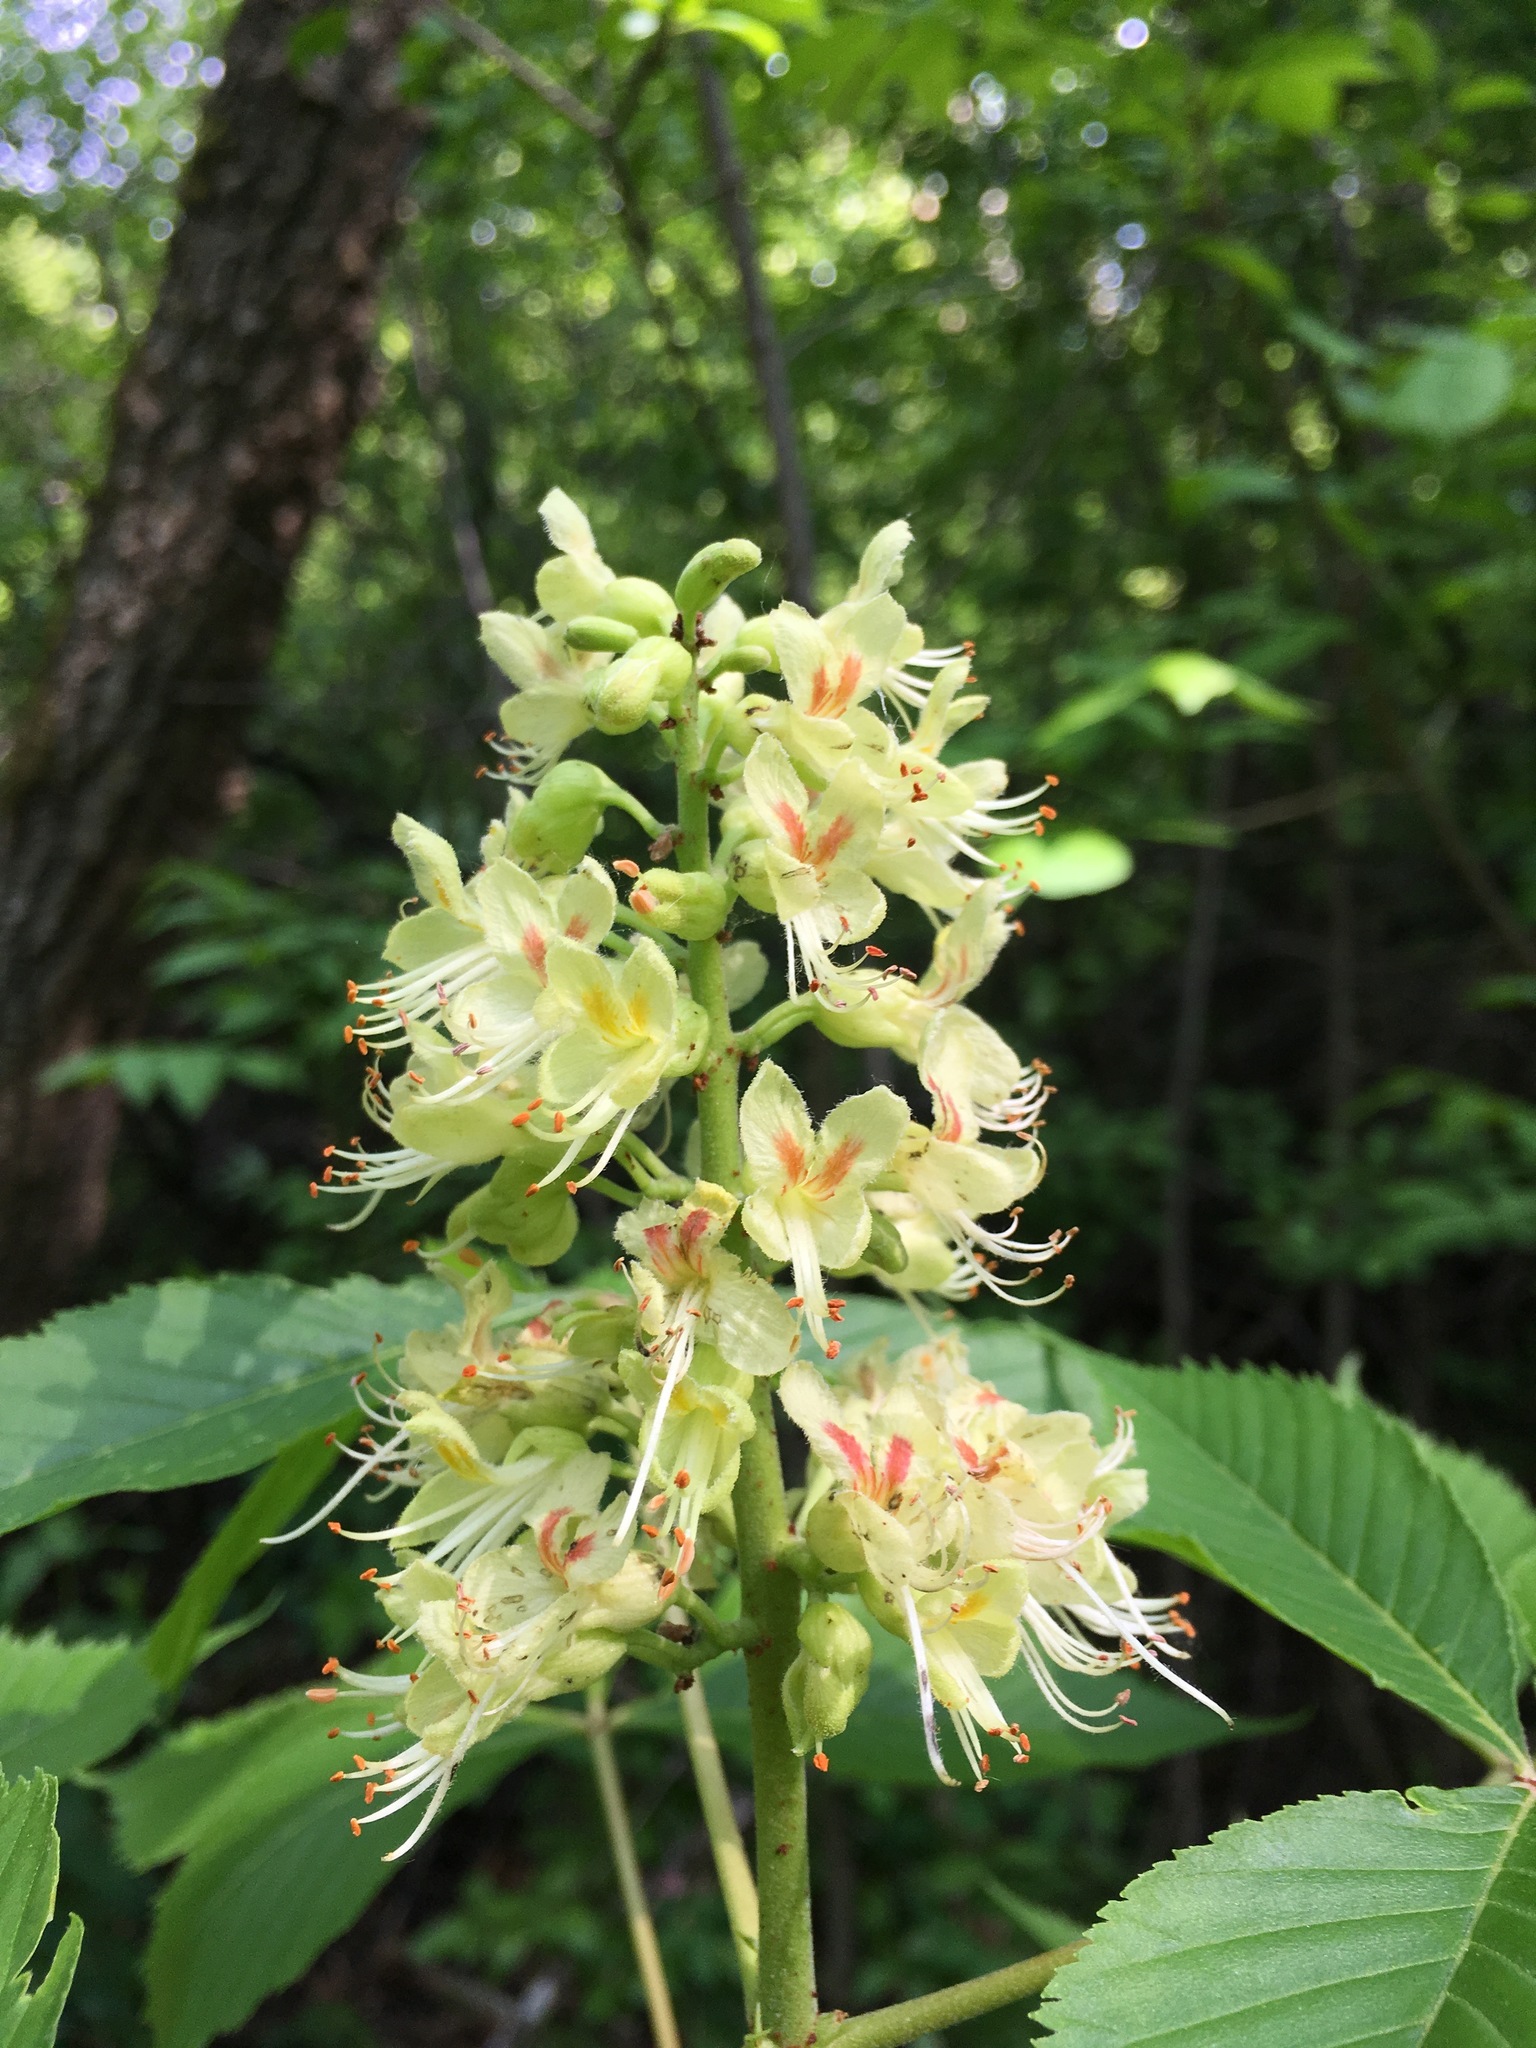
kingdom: Plantae
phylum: Tracheophyta
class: Magnoliopsida
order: Sapindales
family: Sapindaceae
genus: Aesculus
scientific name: Aesculus glabra
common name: Ohio buckeye
